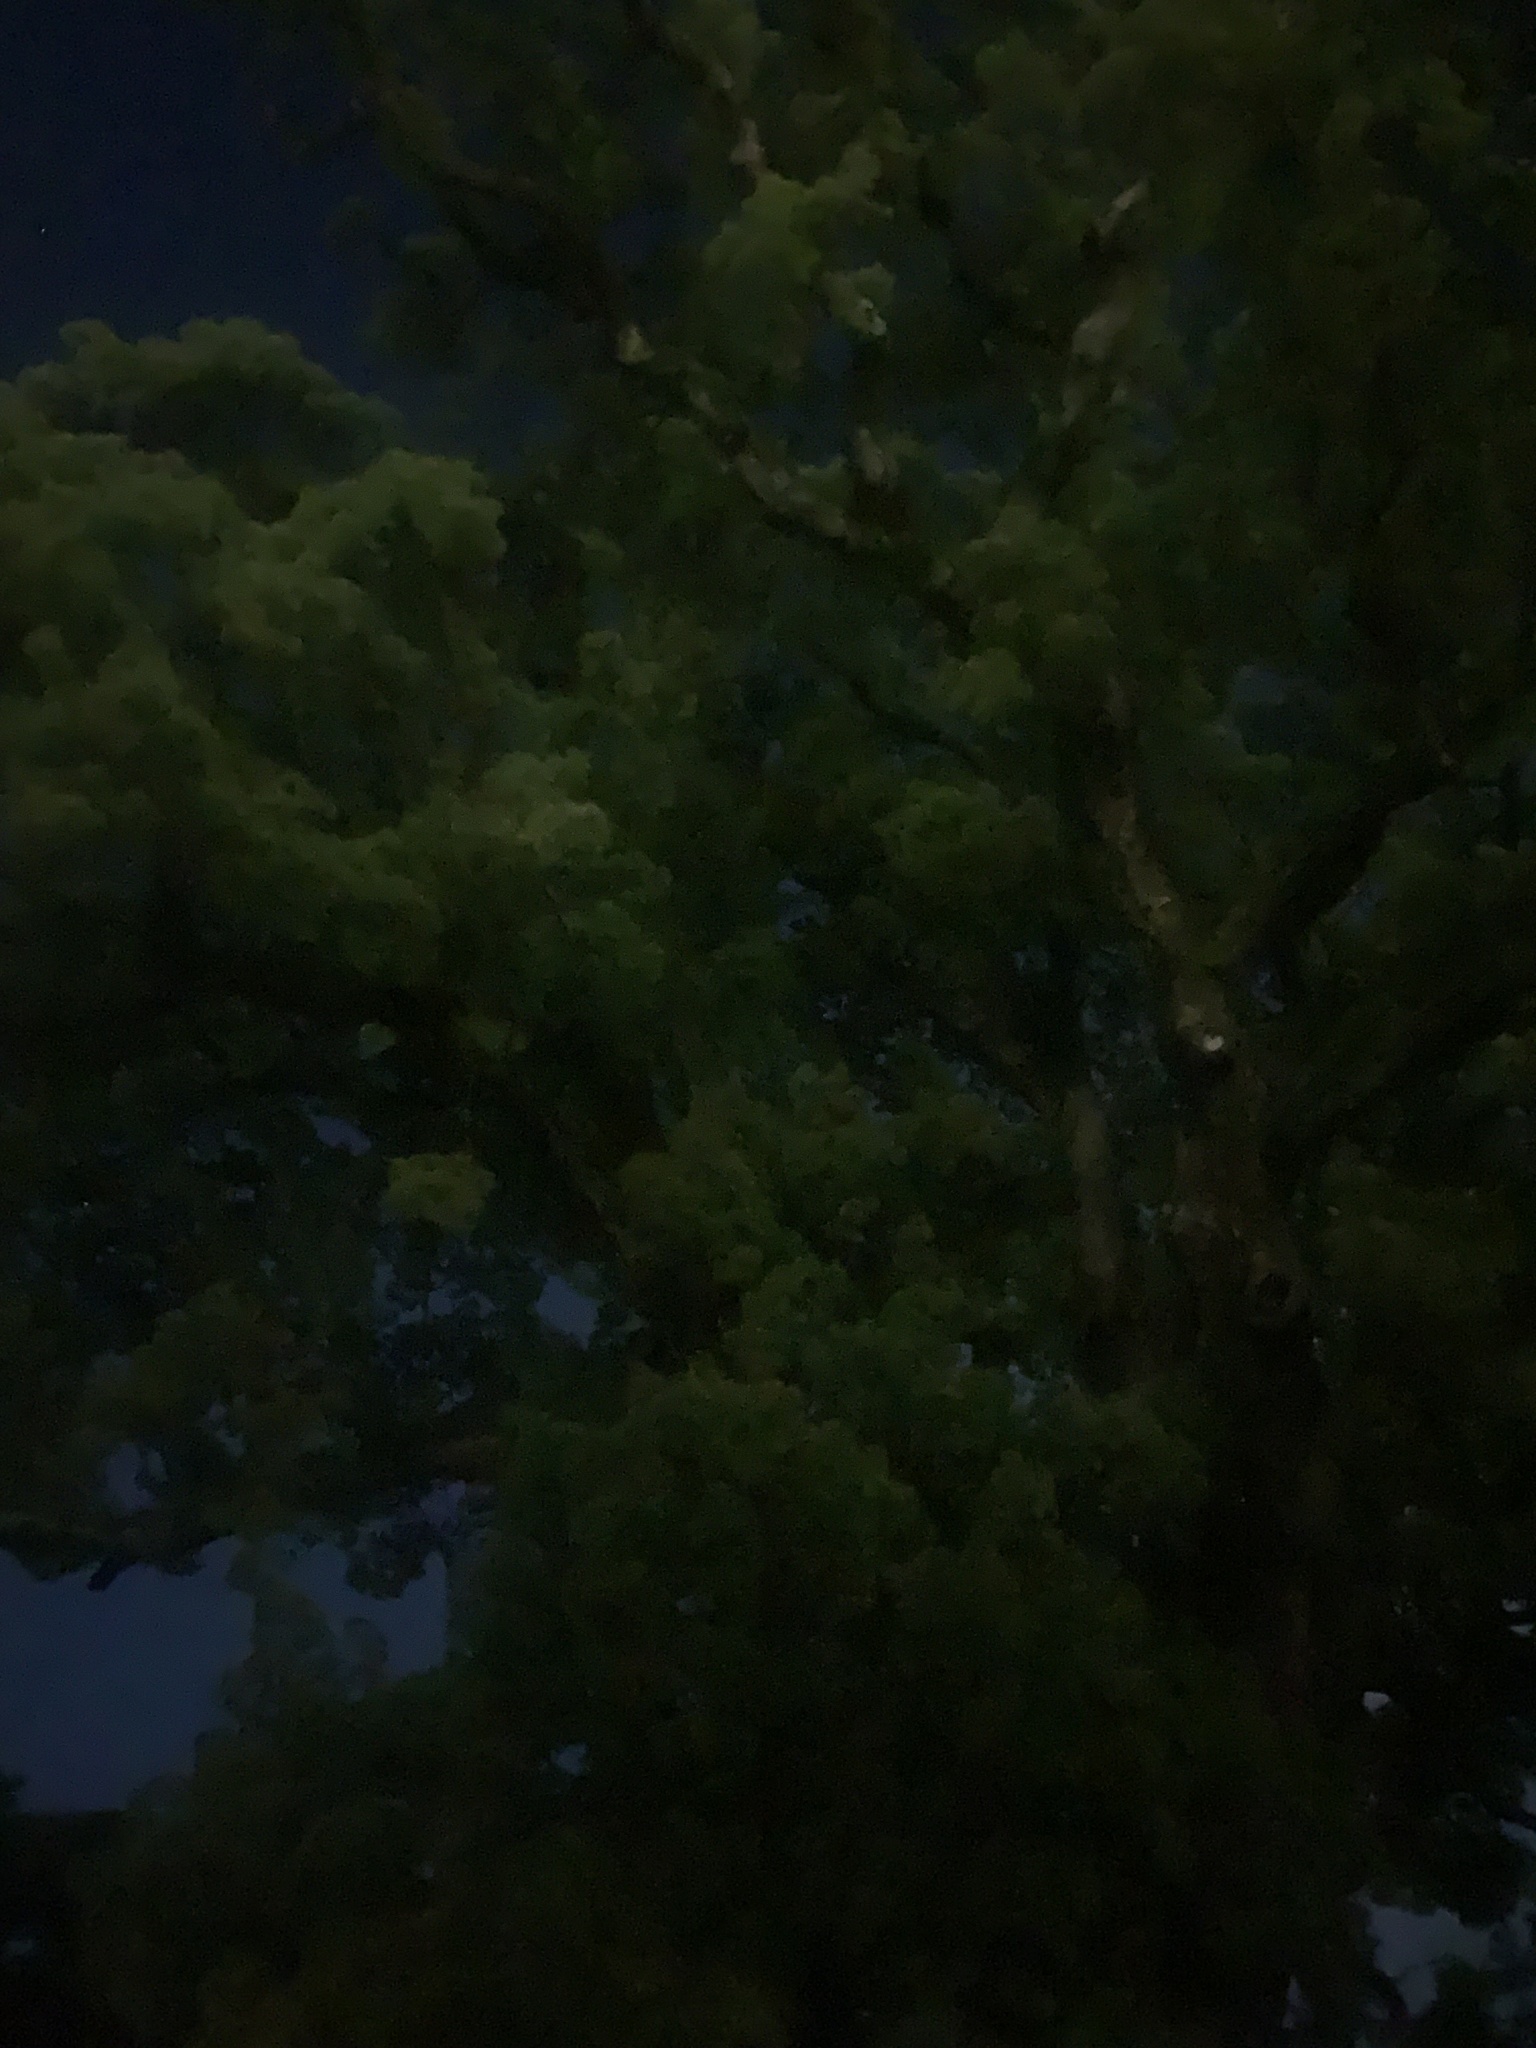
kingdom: Animalia
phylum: Chordata
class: Aves
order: Strigiformes
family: Strigidae
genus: Ninox
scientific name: Ninox japonica
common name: Northern boobook
